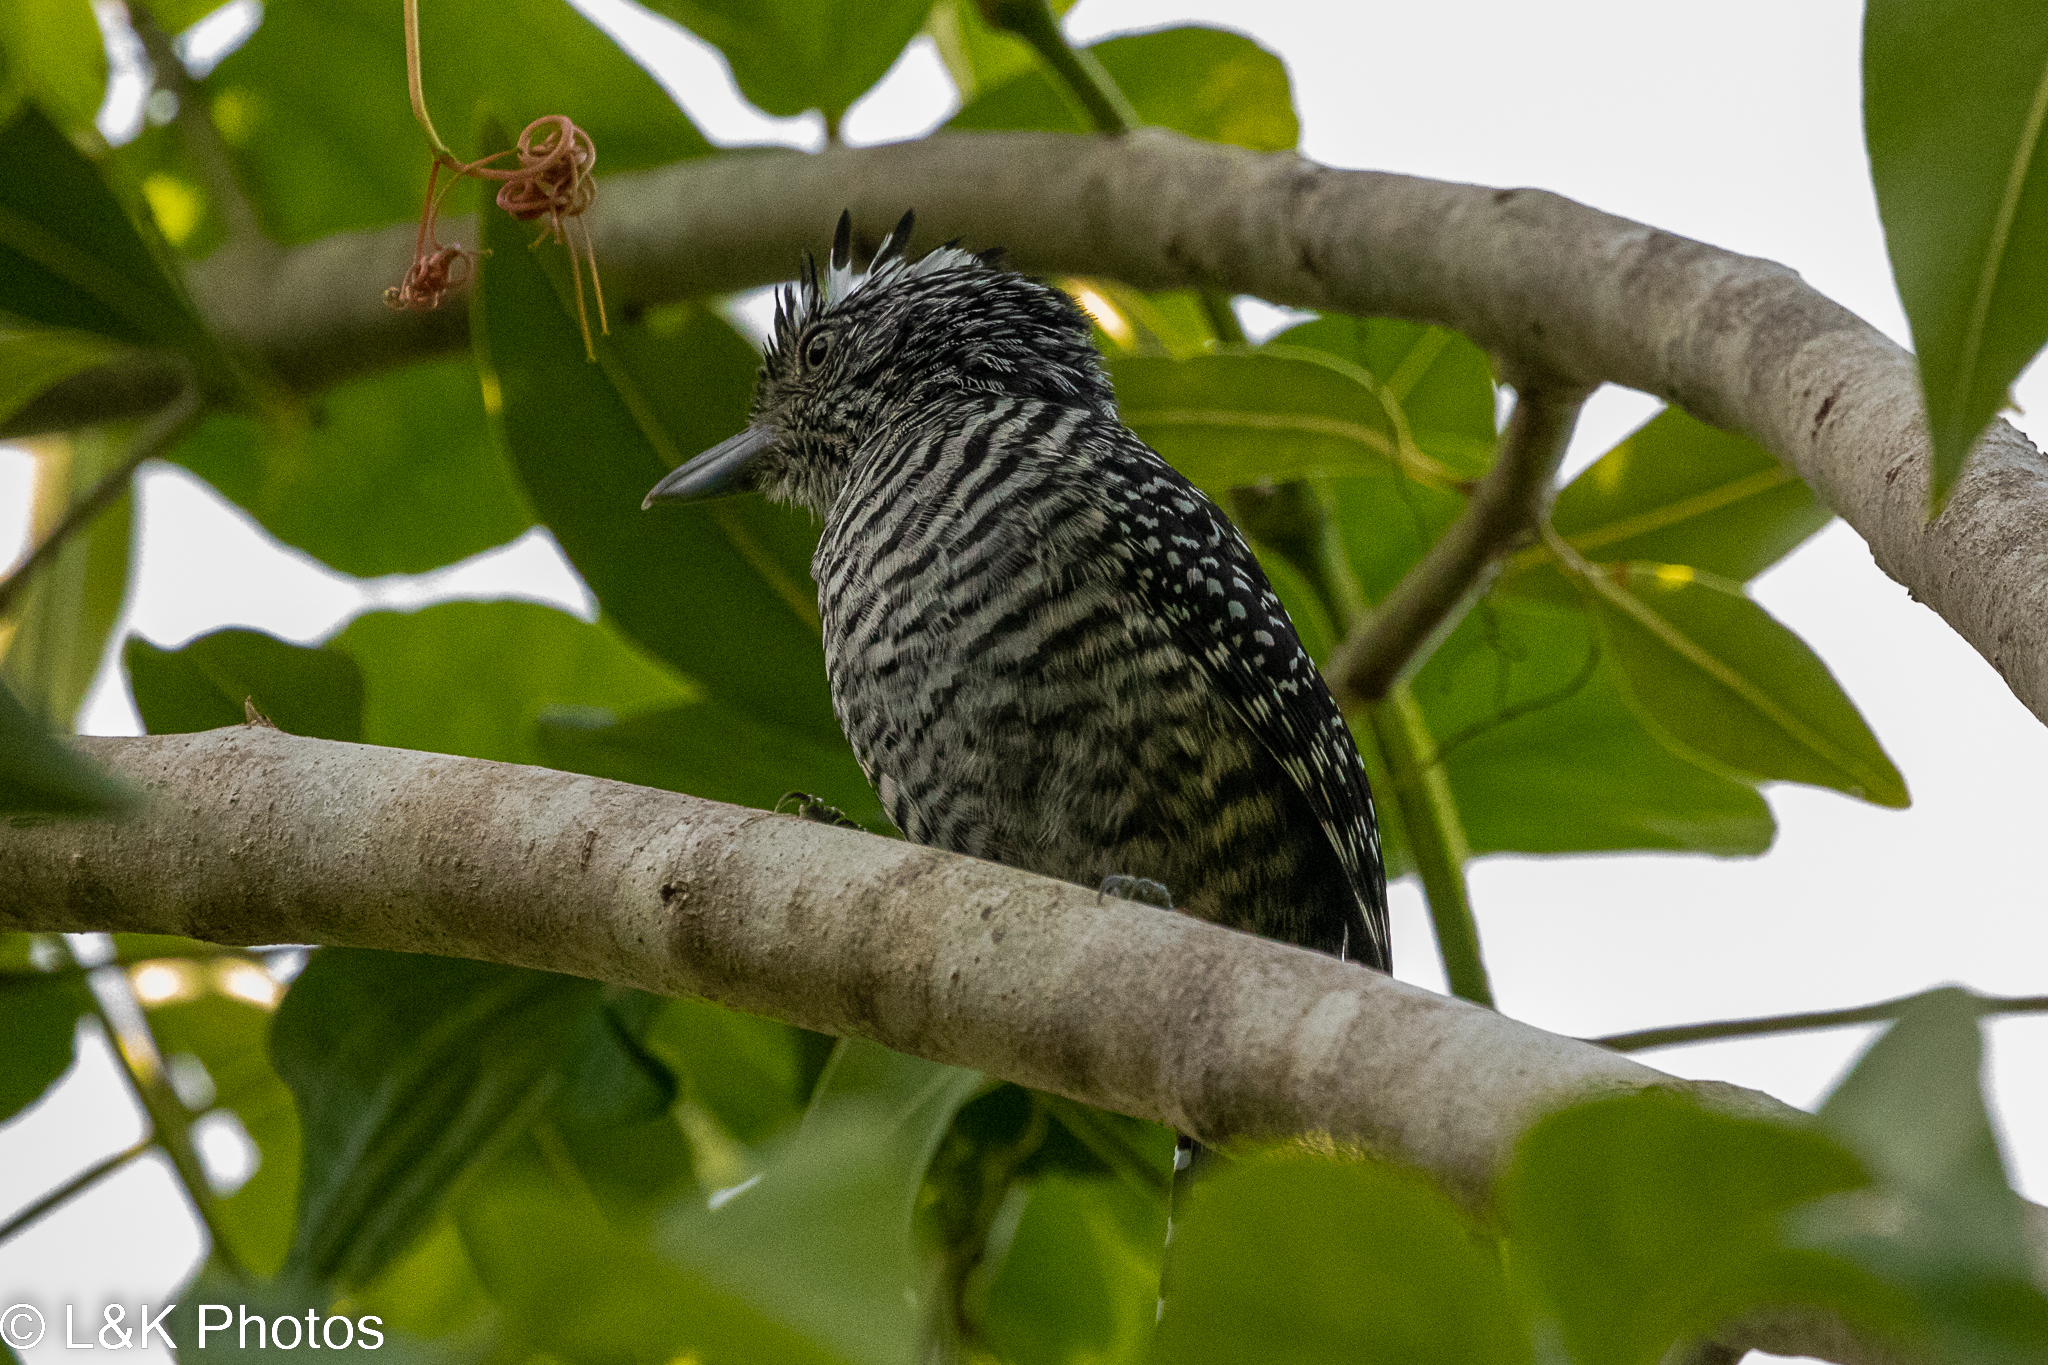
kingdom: Animalia
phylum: Chordata
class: Aves
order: Passeriformes
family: Thamnophilidae
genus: Thamnophilus
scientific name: Thamnophilus doliatus
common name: Barred antshrike
